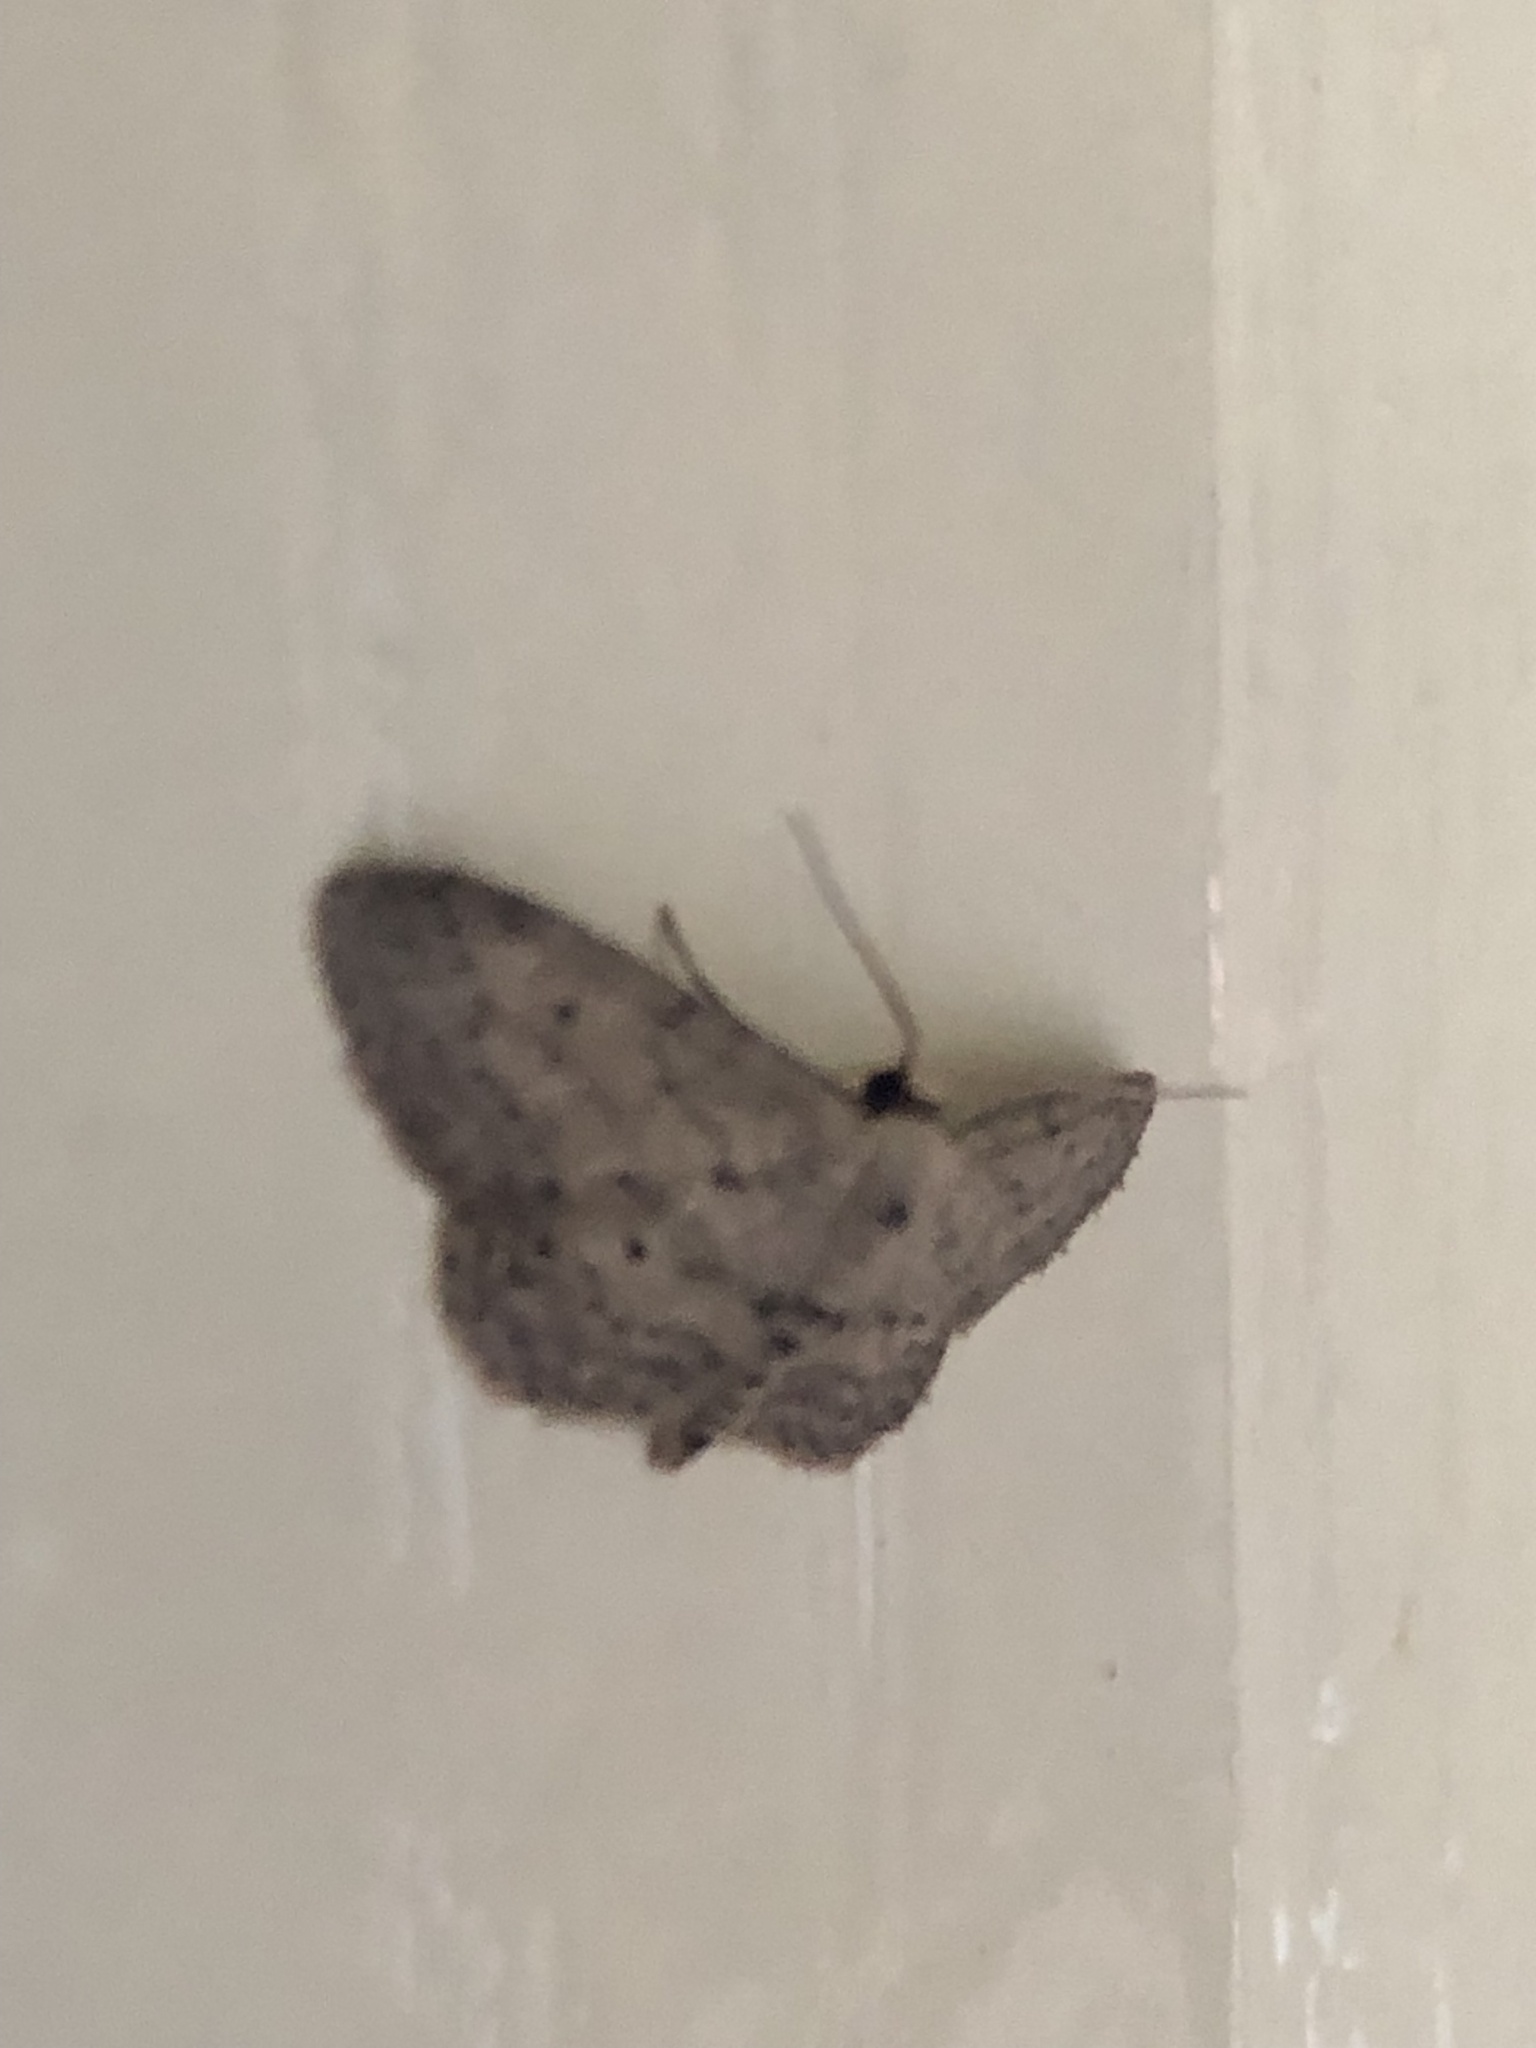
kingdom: Animalia
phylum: Arthropoda
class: Insecta
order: Lepidoptera
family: Geometridae
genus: Idaea
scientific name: Idaea seriata
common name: Small dusty wave
